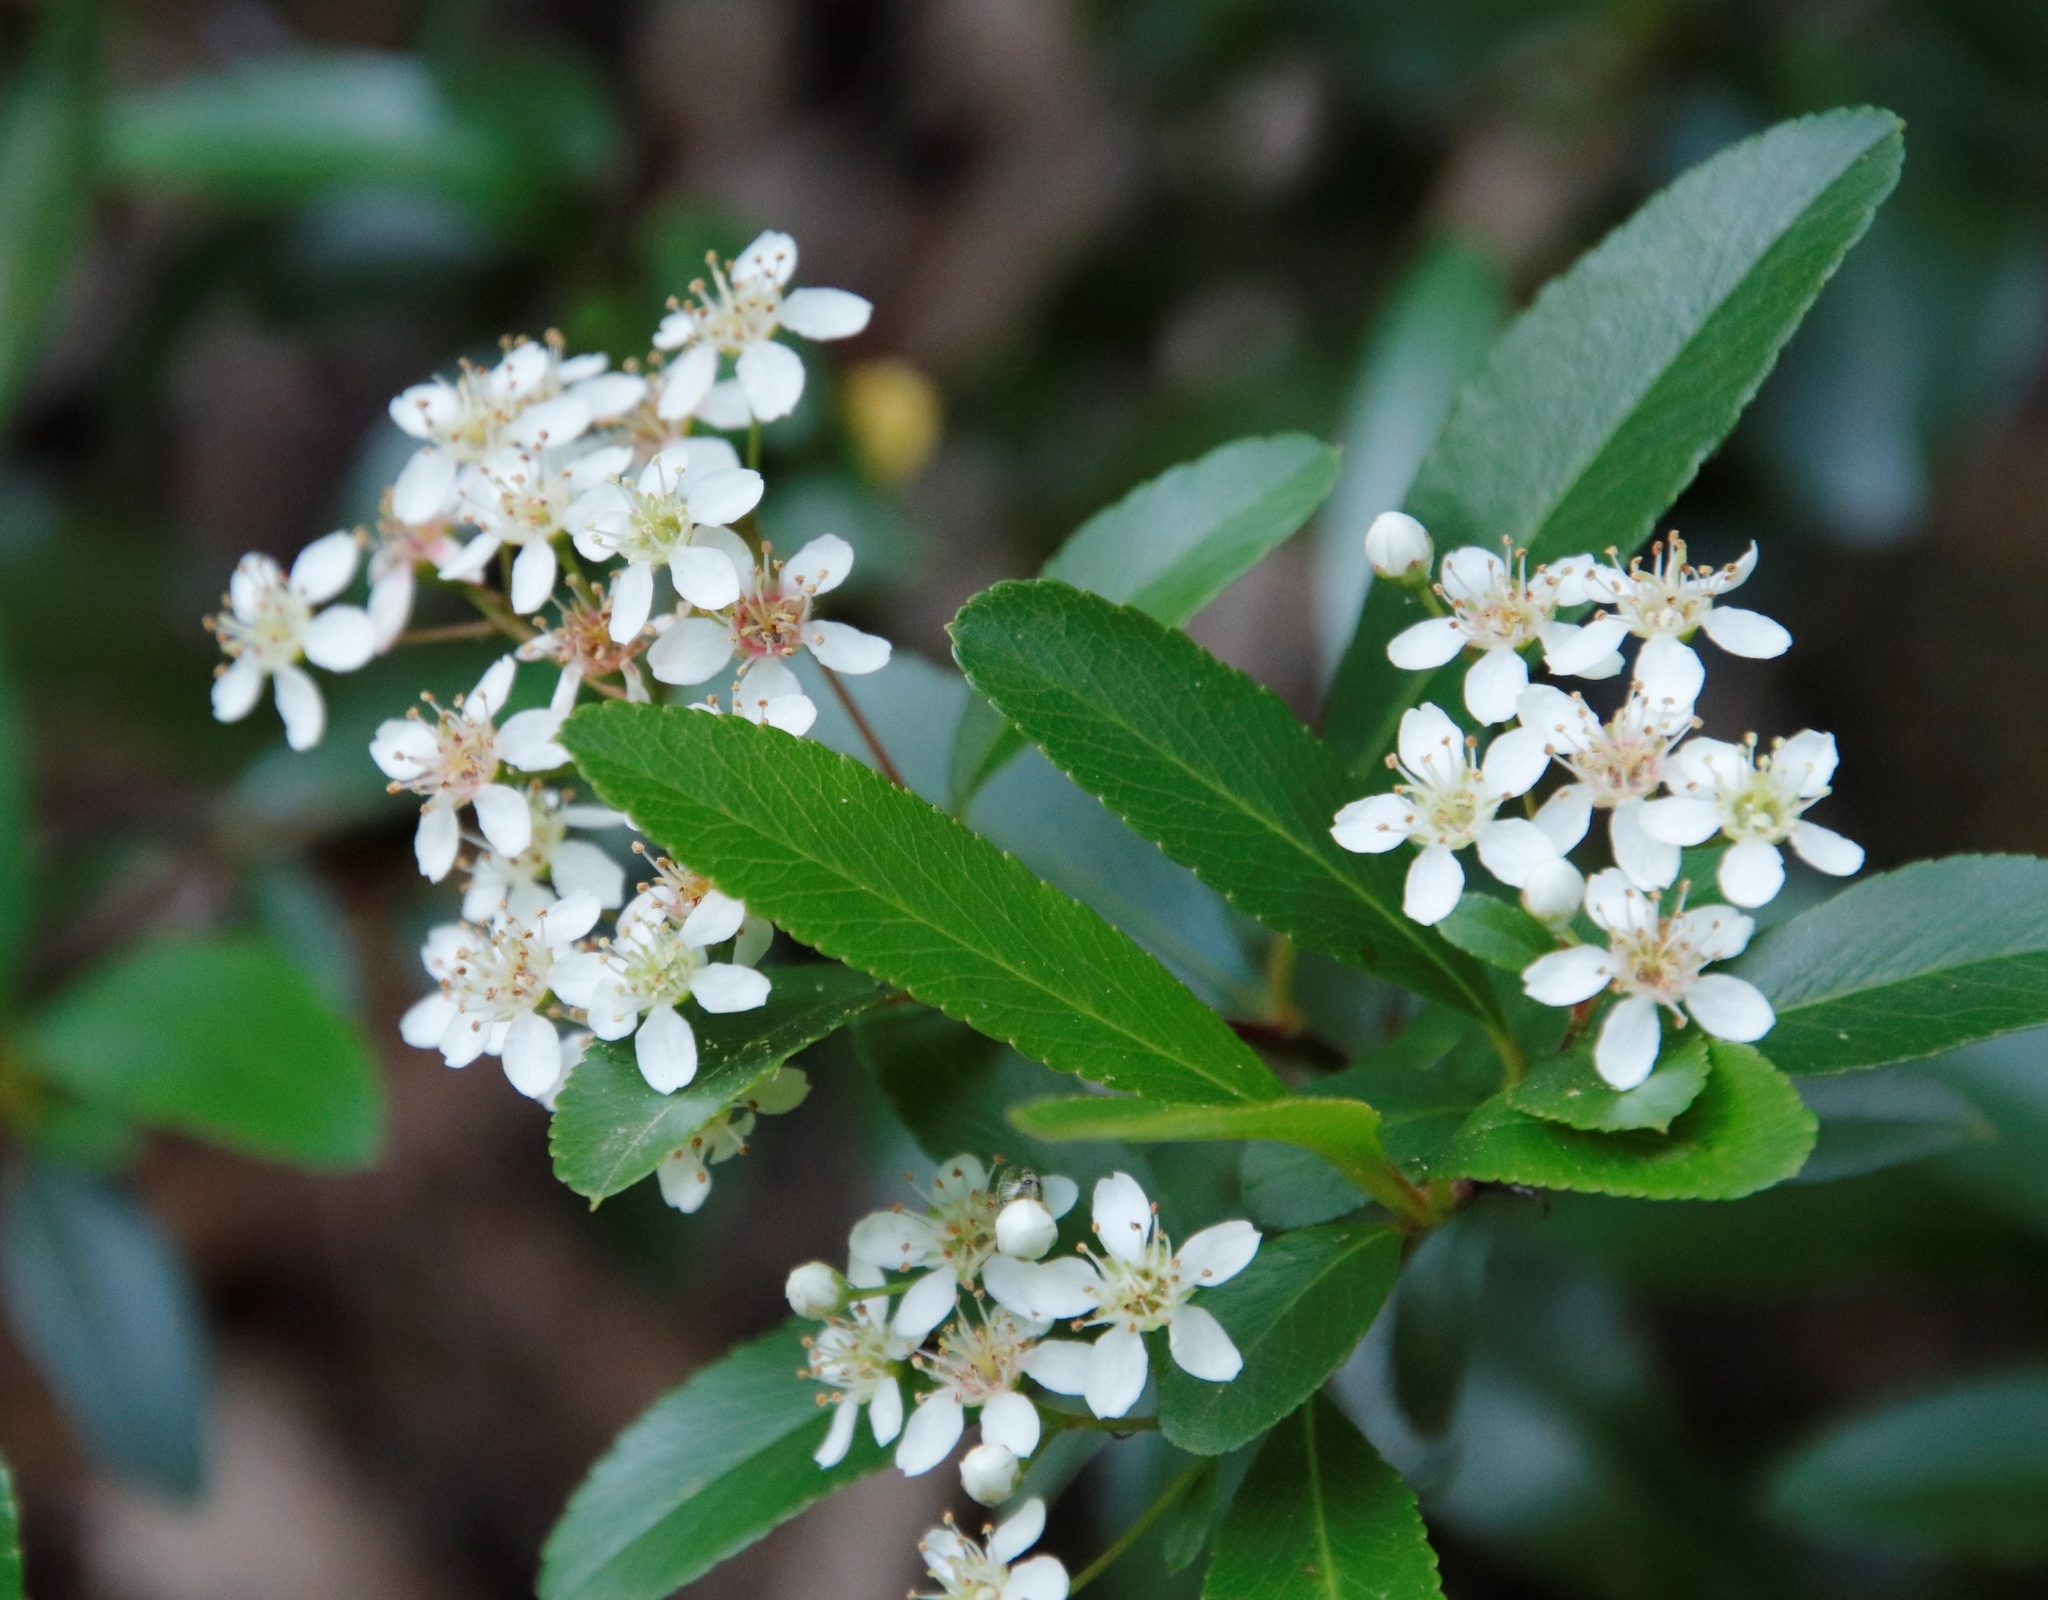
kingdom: Plantae
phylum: Tracheophyta
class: Magnoliopsida
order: Rosales
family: Rosaceae
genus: Pyracantha
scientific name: Pyracantha crenulata
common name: Nepalese firethorn
